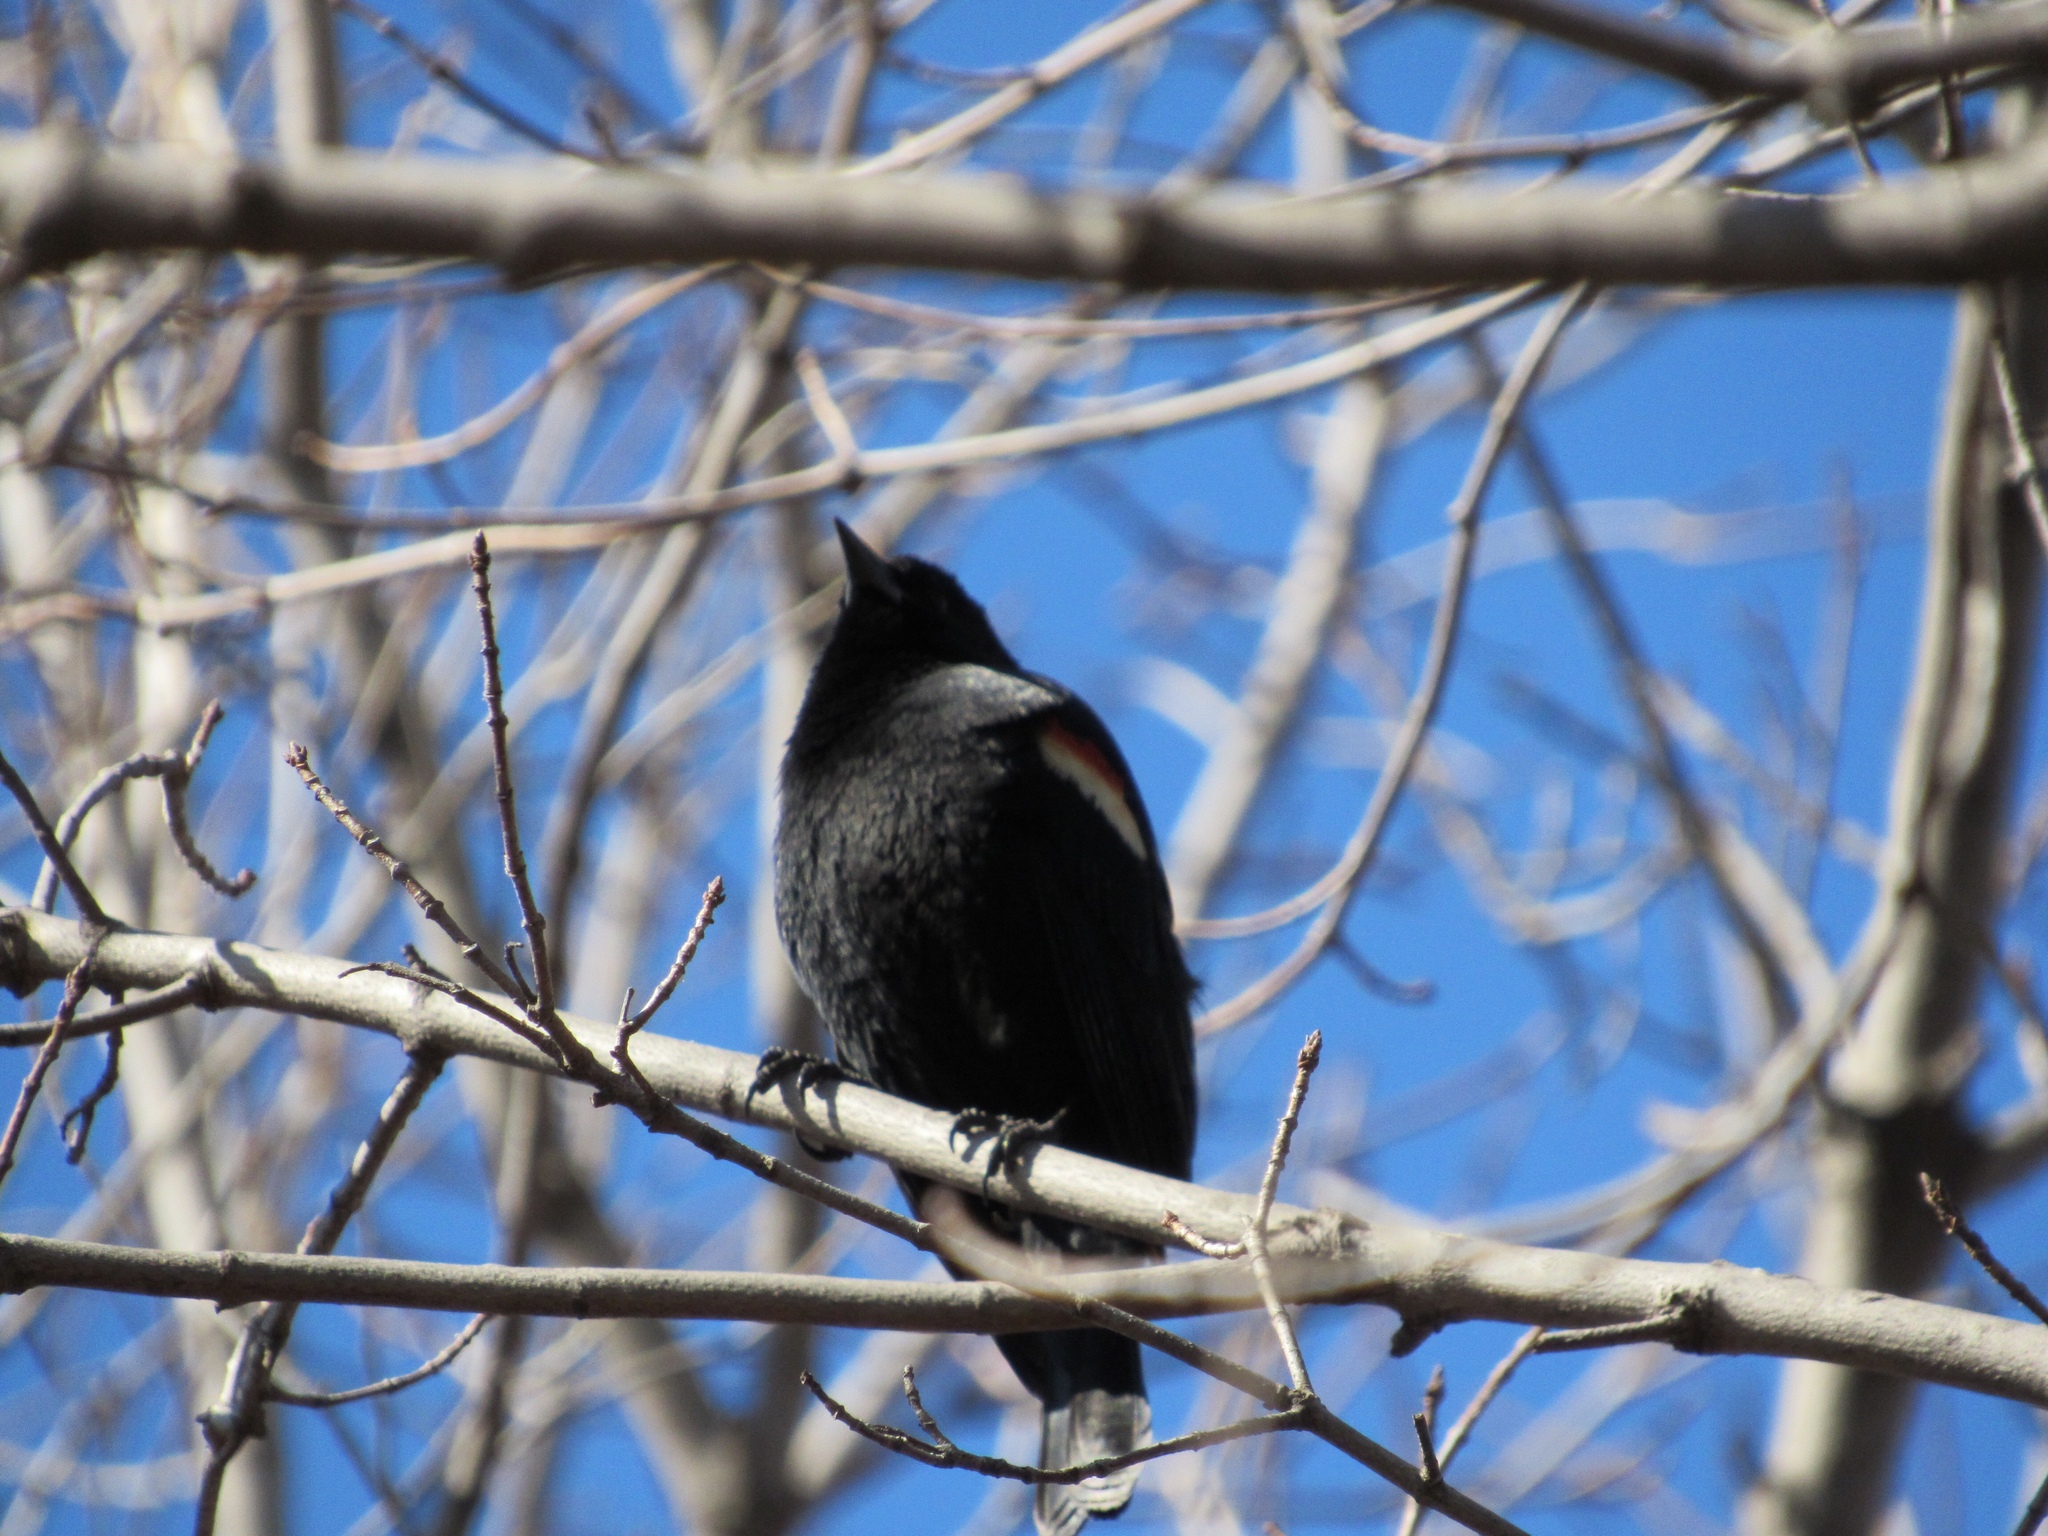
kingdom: Animalia
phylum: Chordata
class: Aves
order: Passeriformes
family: Icteridae
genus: Agelaius
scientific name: Agelaius phoeniceus
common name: Red-winged blackbird
